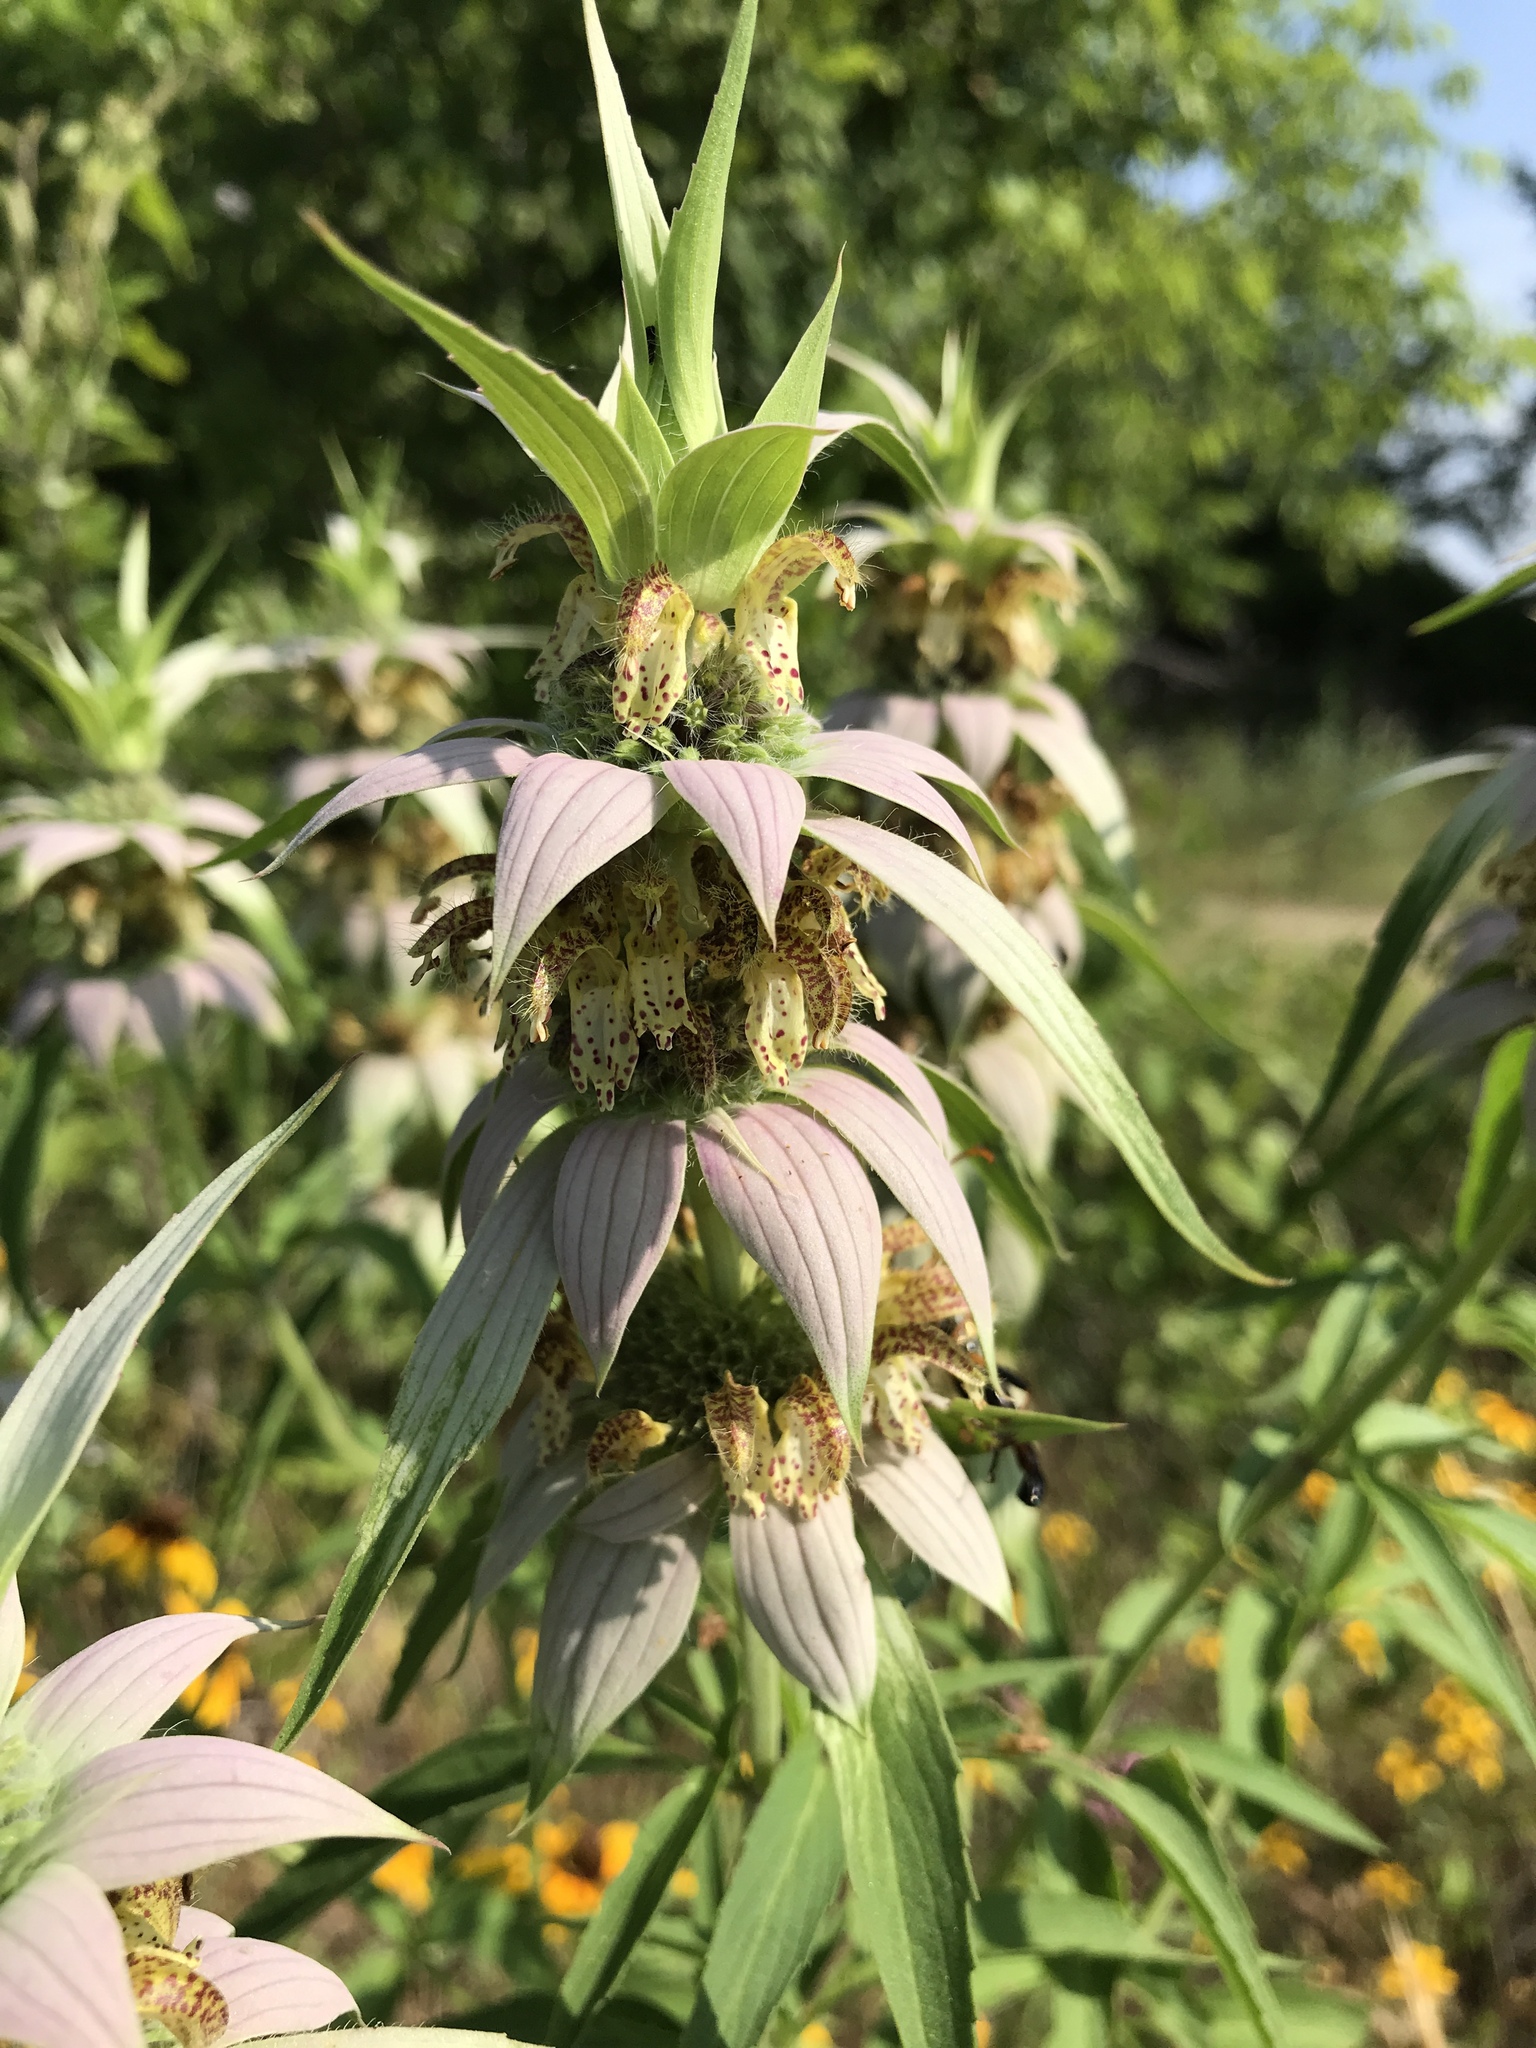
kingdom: Plantae
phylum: Tracheophyta
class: Magnoliopsida
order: Lamiales
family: Lamiaceae
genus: Monarda
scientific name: Monarda punctata
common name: Dotted monarda
